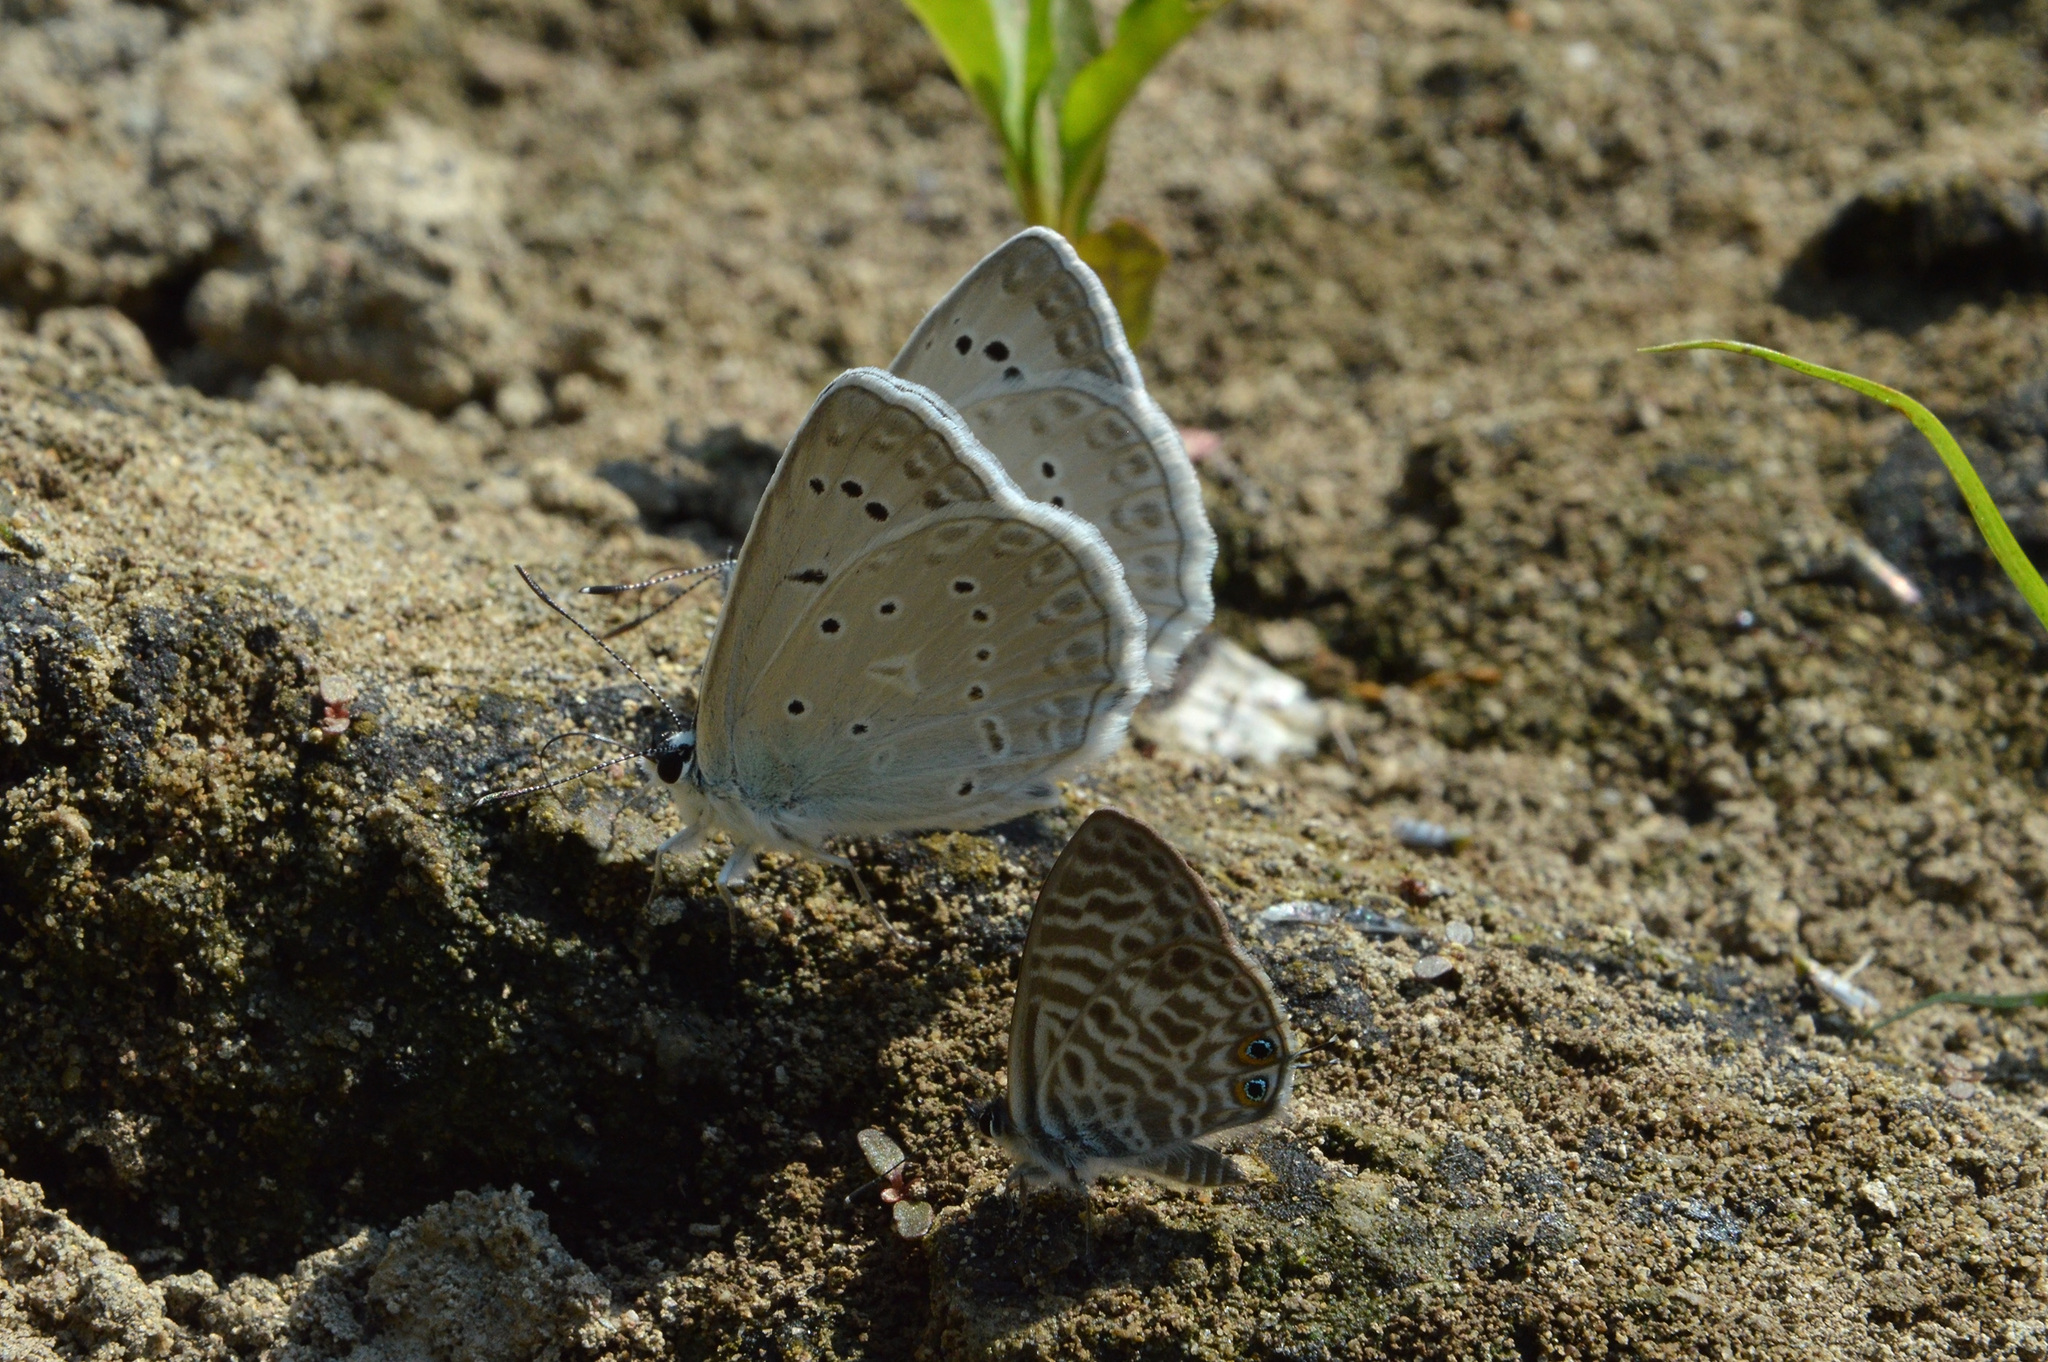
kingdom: Animalia
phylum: Arthropoda
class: Insecta
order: Lepidoptera
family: Lycaenidae
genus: Polyommatus
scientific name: Polyommatus daphnis
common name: Meleager's blue
